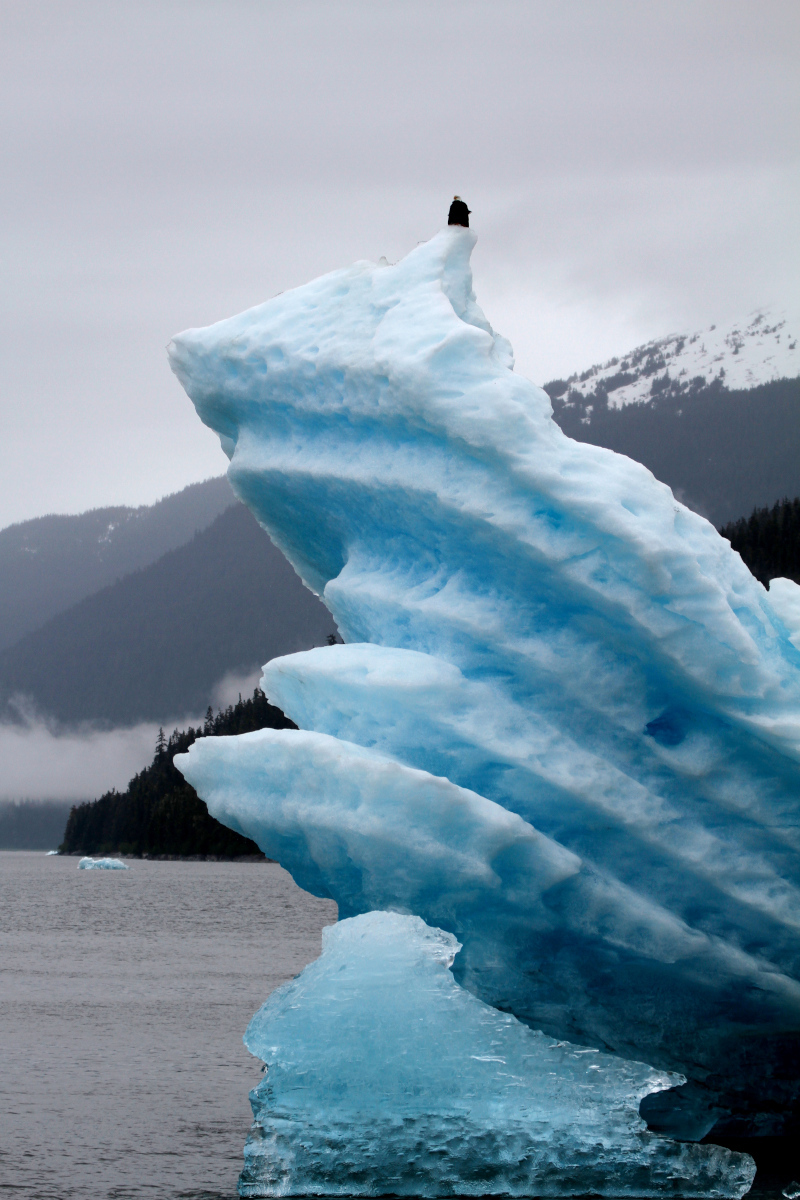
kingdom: Animalia
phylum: Chordata
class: Aves
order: Accipitriformes
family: Accipitridae
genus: Haliaeetus
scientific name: Haliaeetus leucocephalus
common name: Bald eagle
